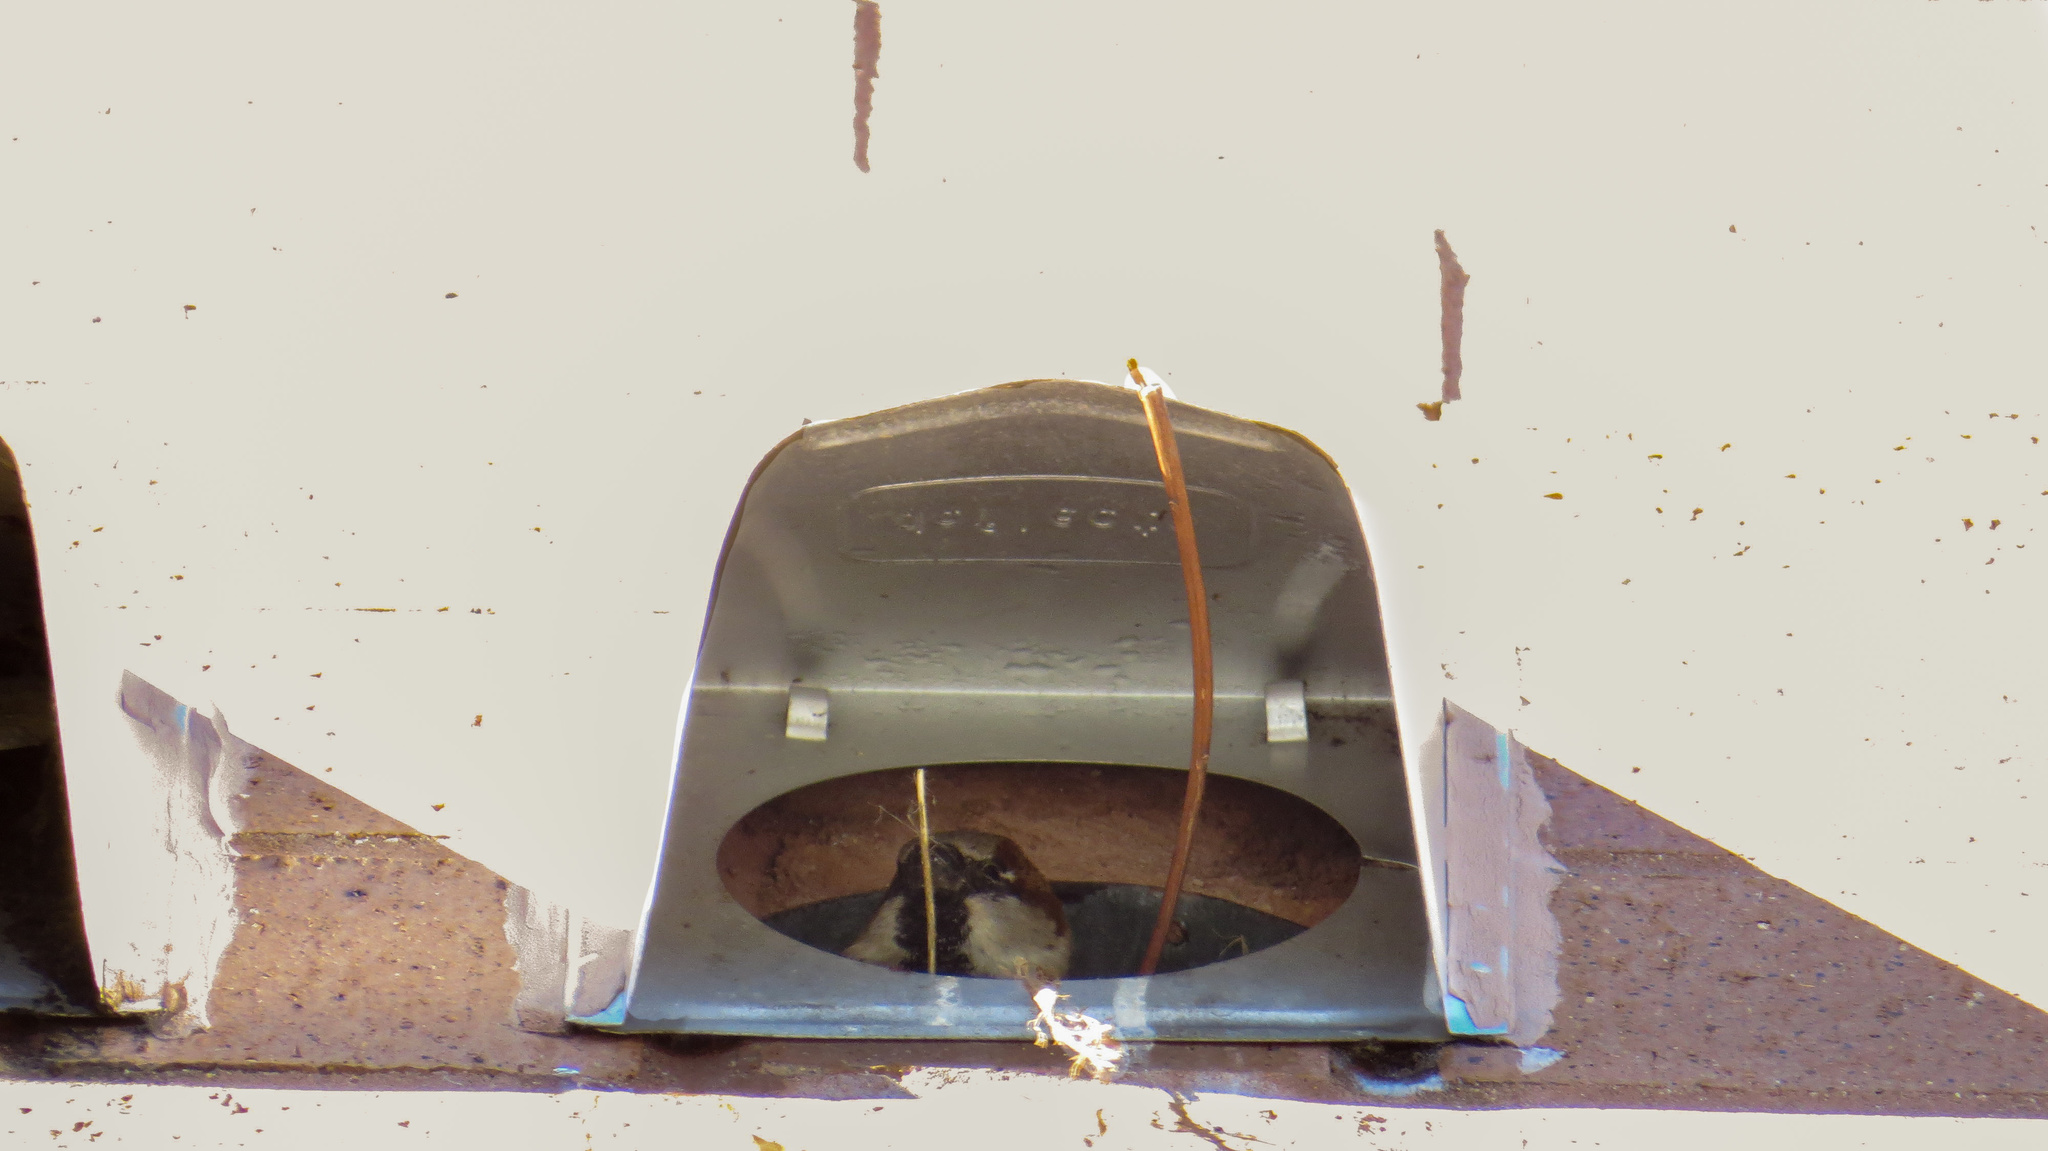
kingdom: Animalia
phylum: Chordata
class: Aves
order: Passeriformes
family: Passeridae
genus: Passer
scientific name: Passer domesticus
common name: House sparrow
